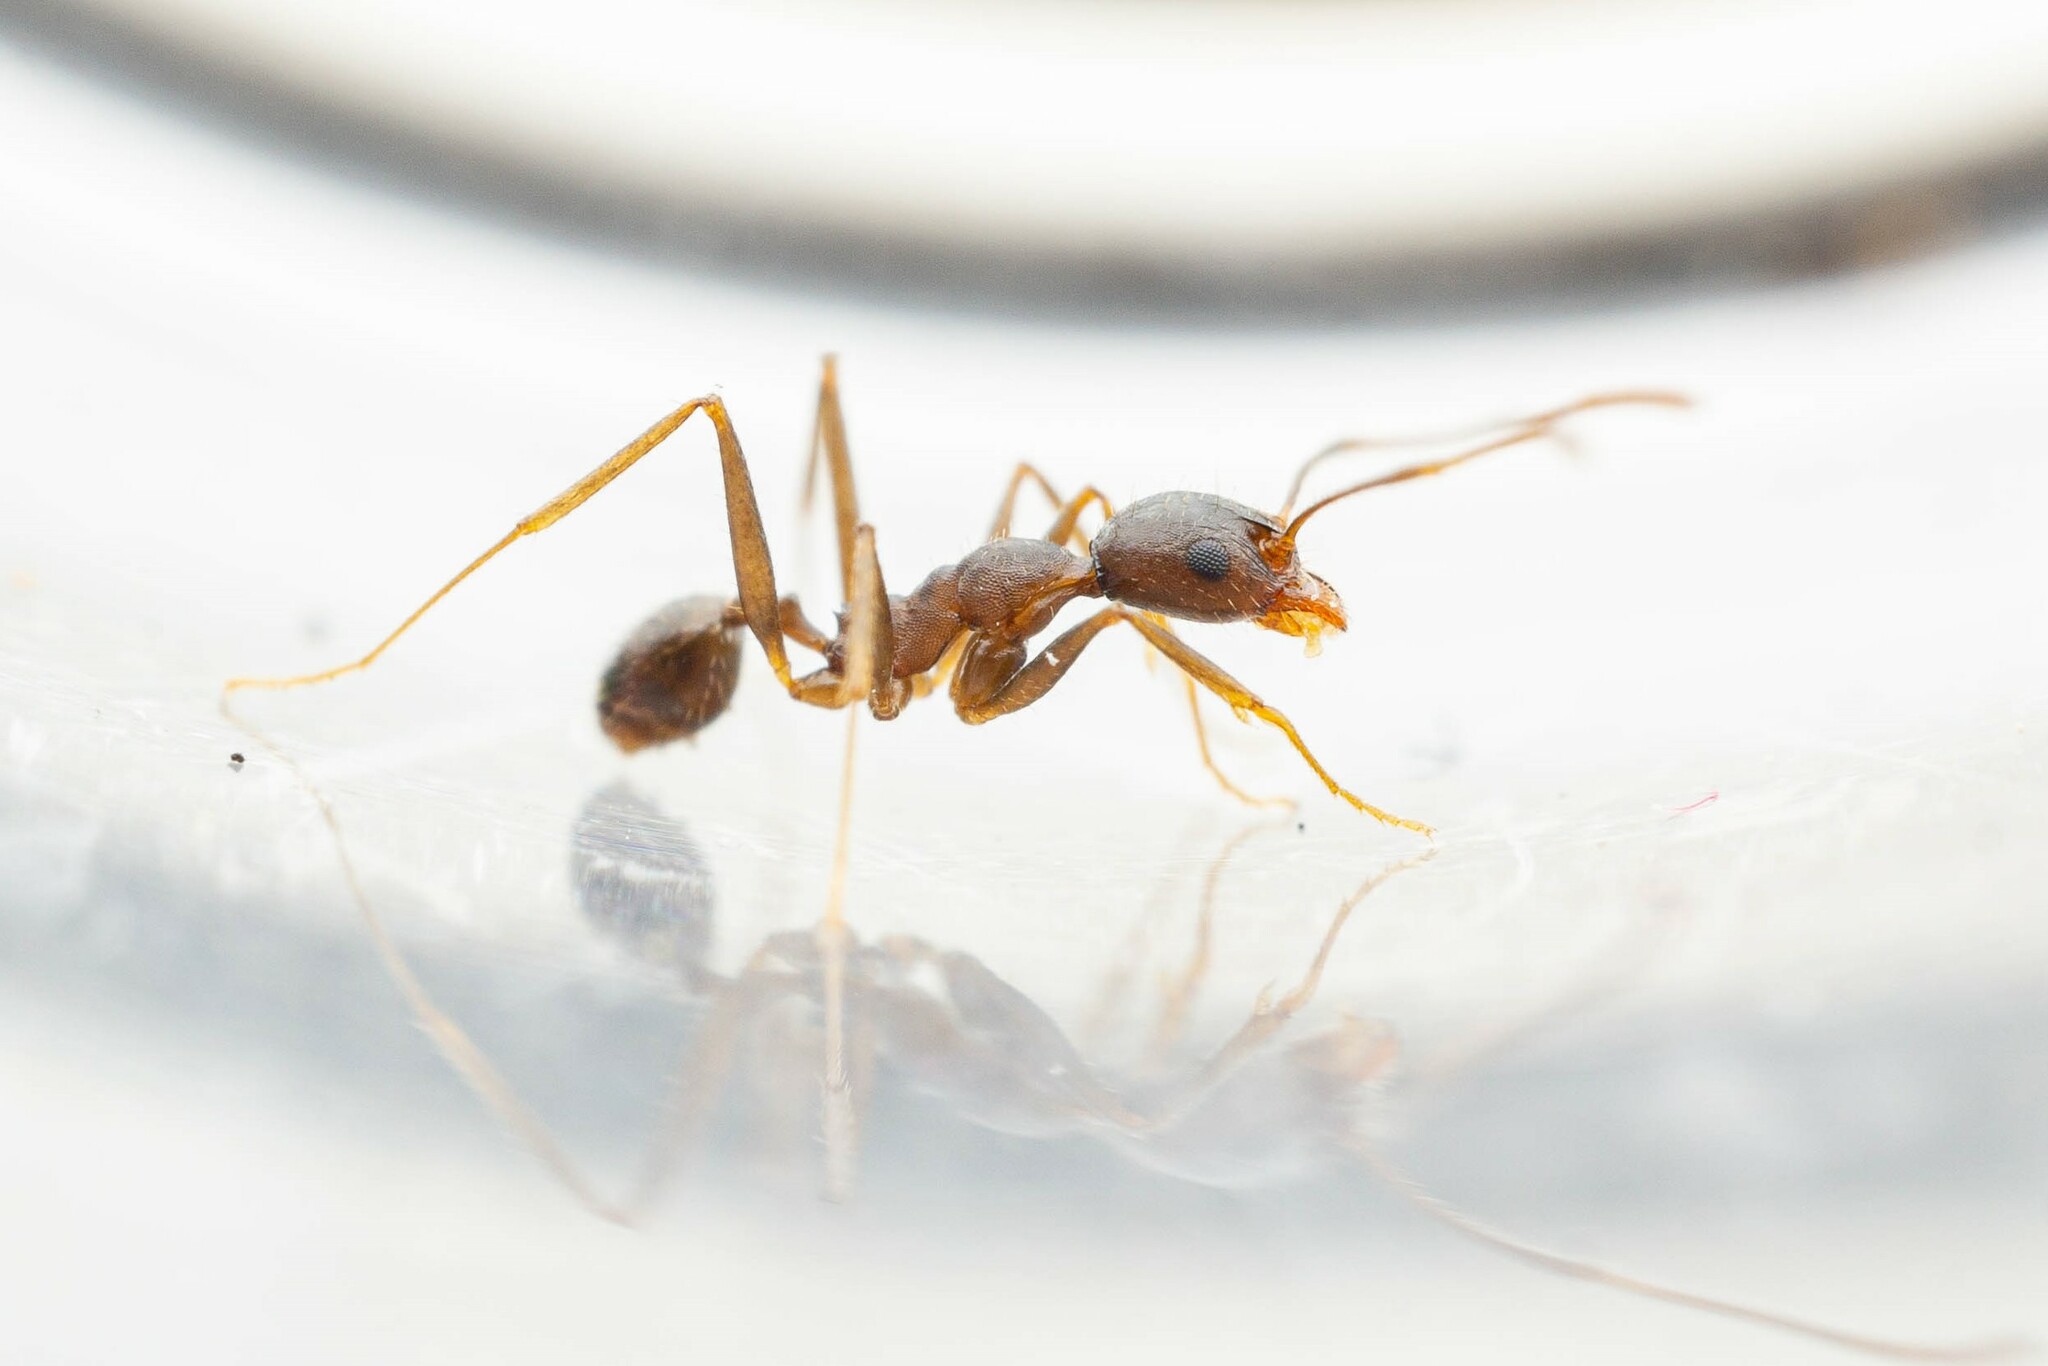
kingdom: Animalia
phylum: Arthropoda
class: Insecta
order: Hymenoptera
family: Formicidae
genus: Pheidole
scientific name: Pheidole portalensis
